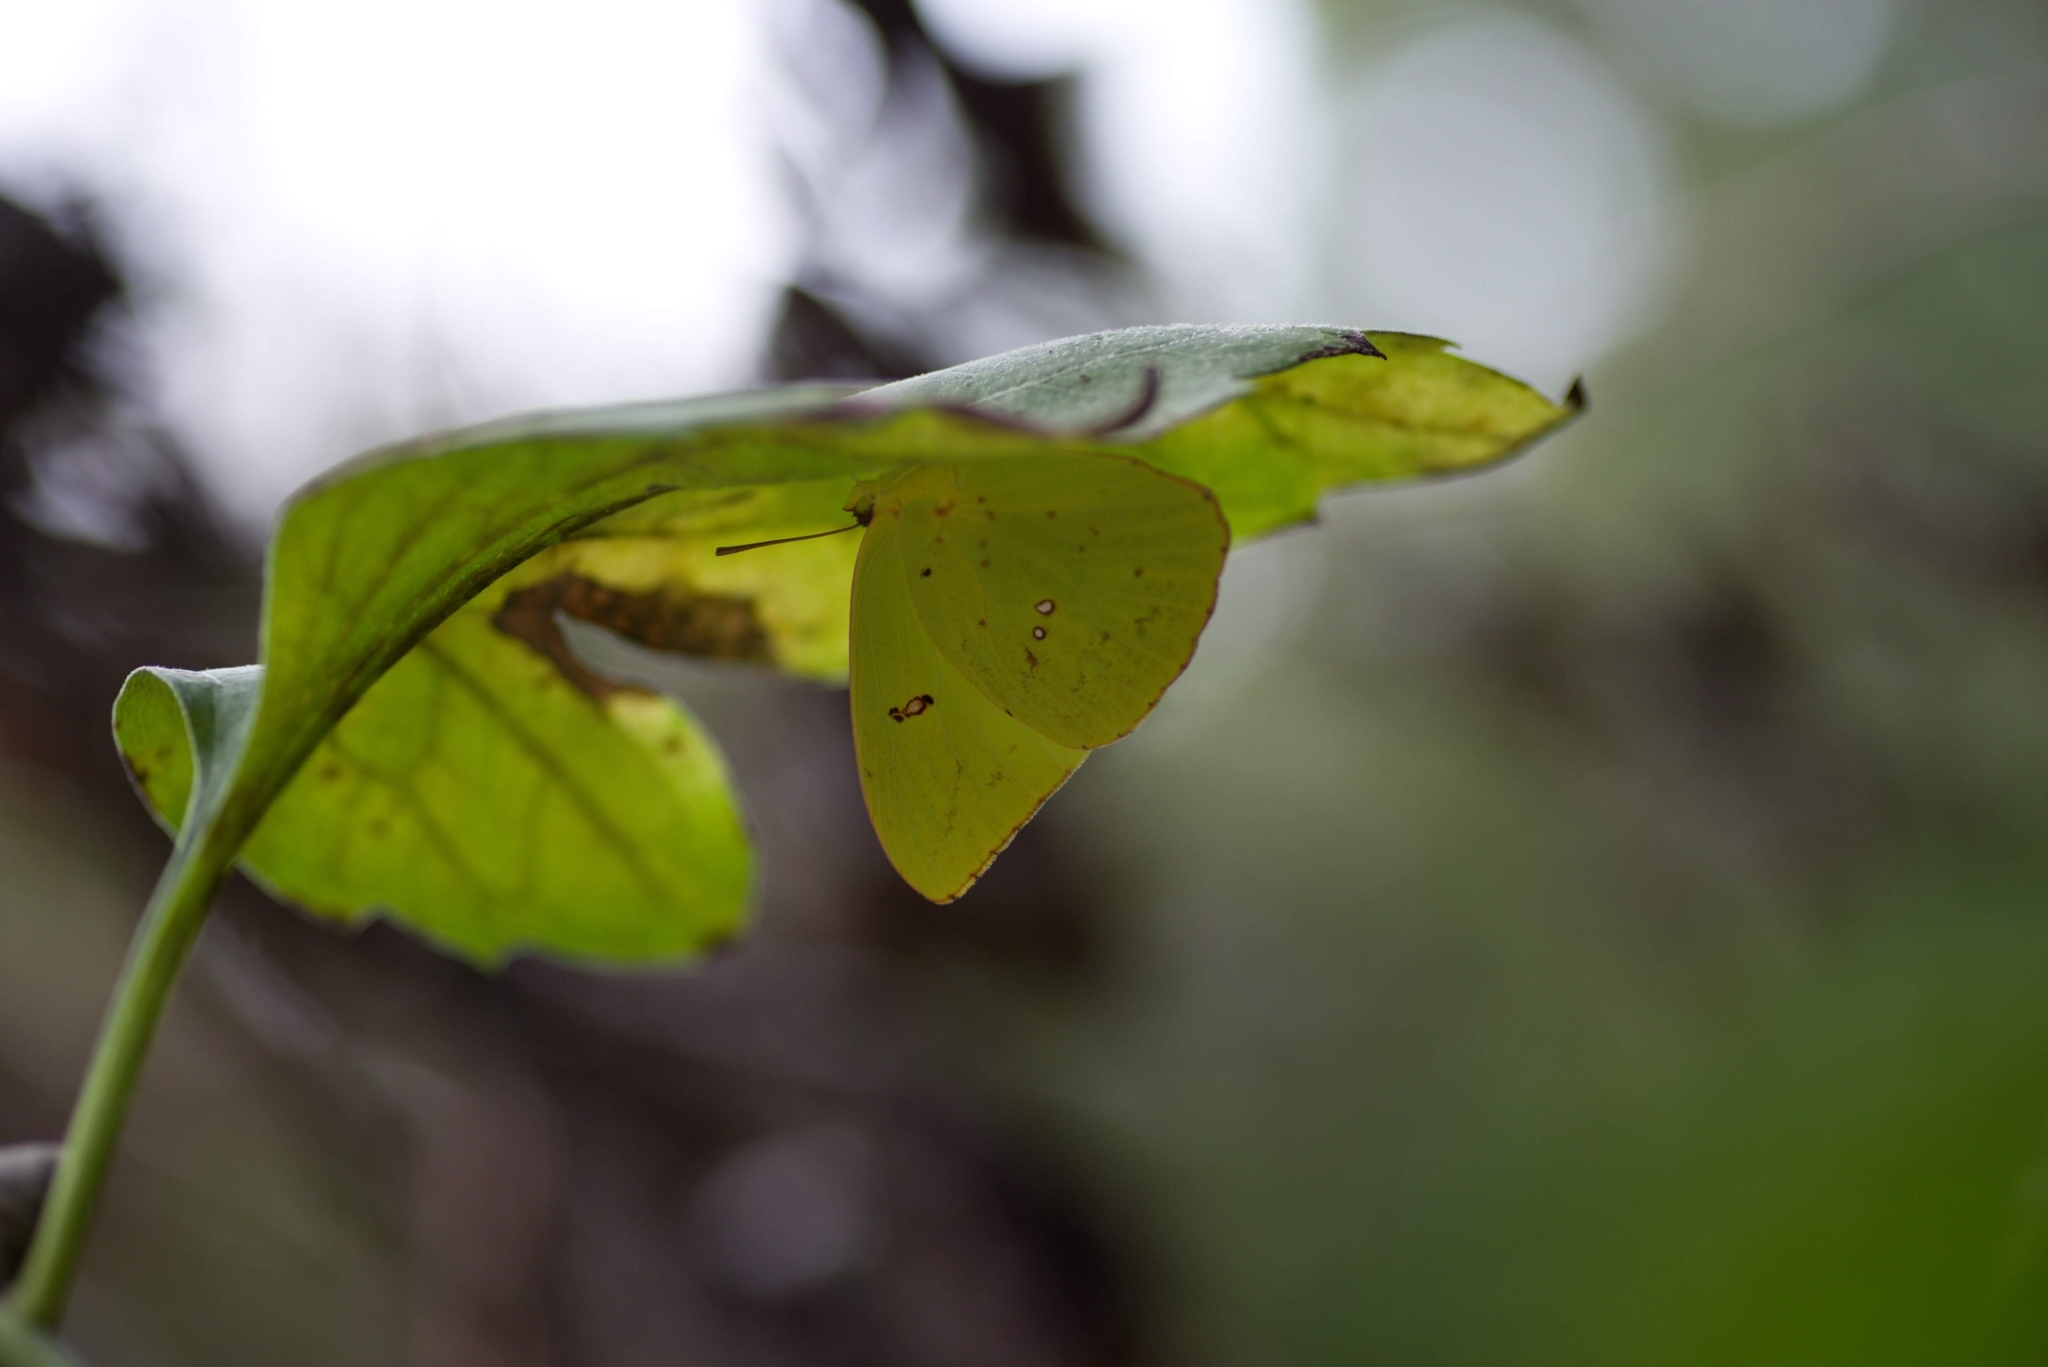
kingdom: Animalia
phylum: Arthropoda
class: Insecta
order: Lepidoptera
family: Pieridae
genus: Phoebis
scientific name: Phoebis sennae
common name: Cloudless sulphur
